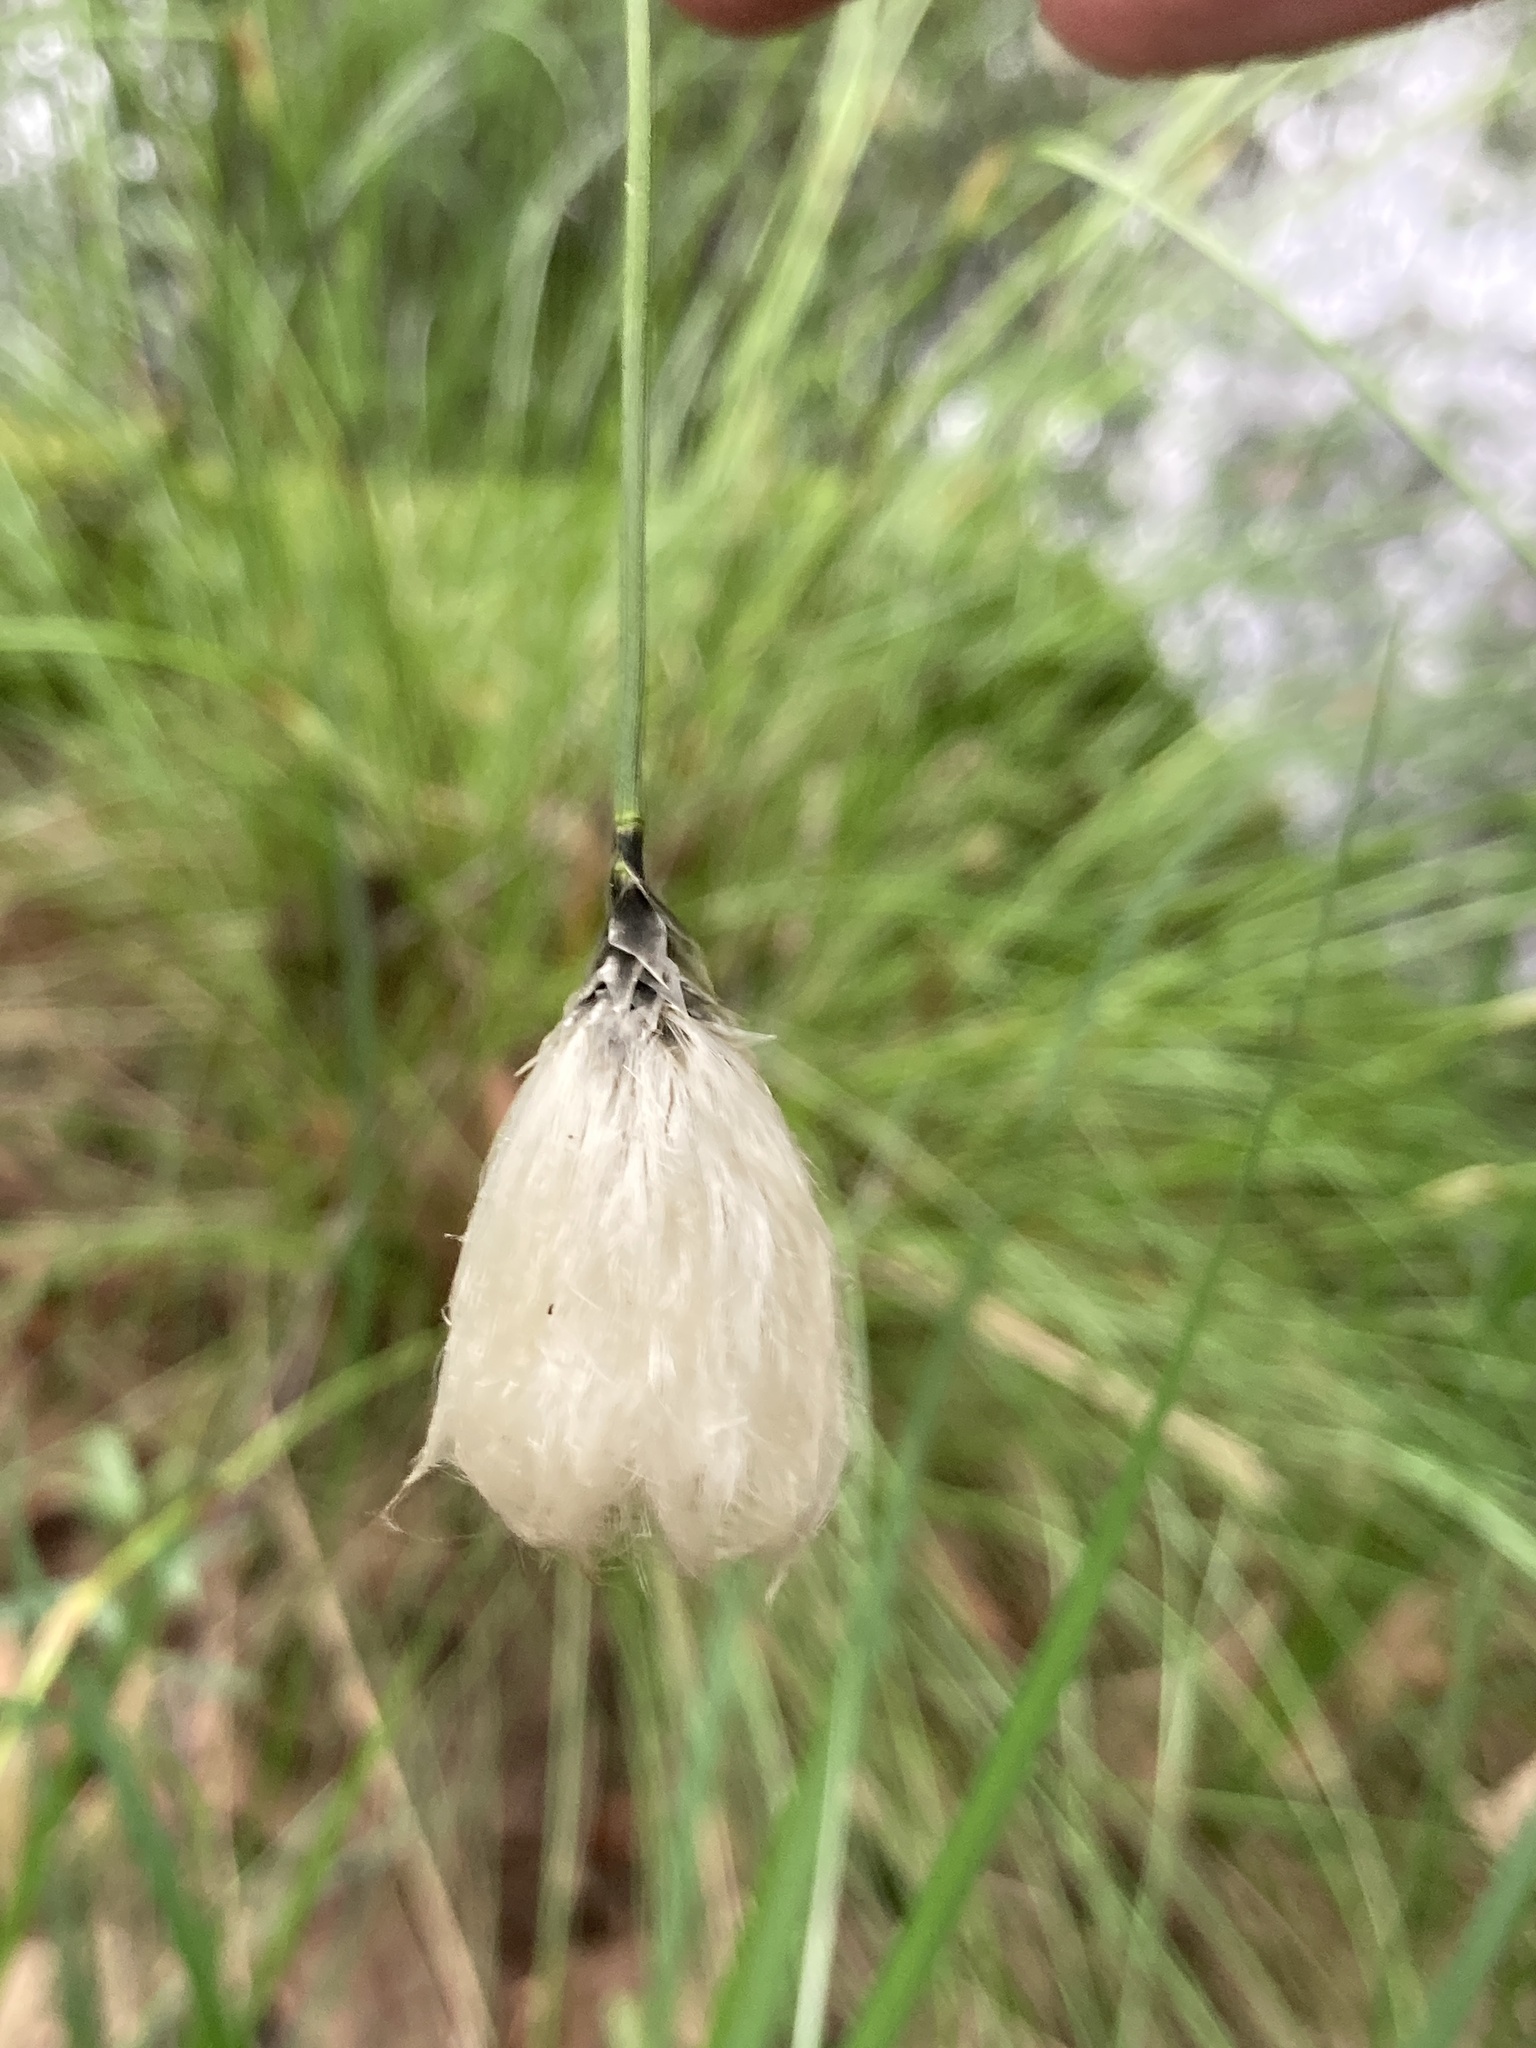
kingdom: Plantae
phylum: Tracheophyta
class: Liliopsida
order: Poales
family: Cyperaceae
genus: Eriophorum
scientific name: Eriophorum vaginatum
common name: Hare's-tail cottongrass
